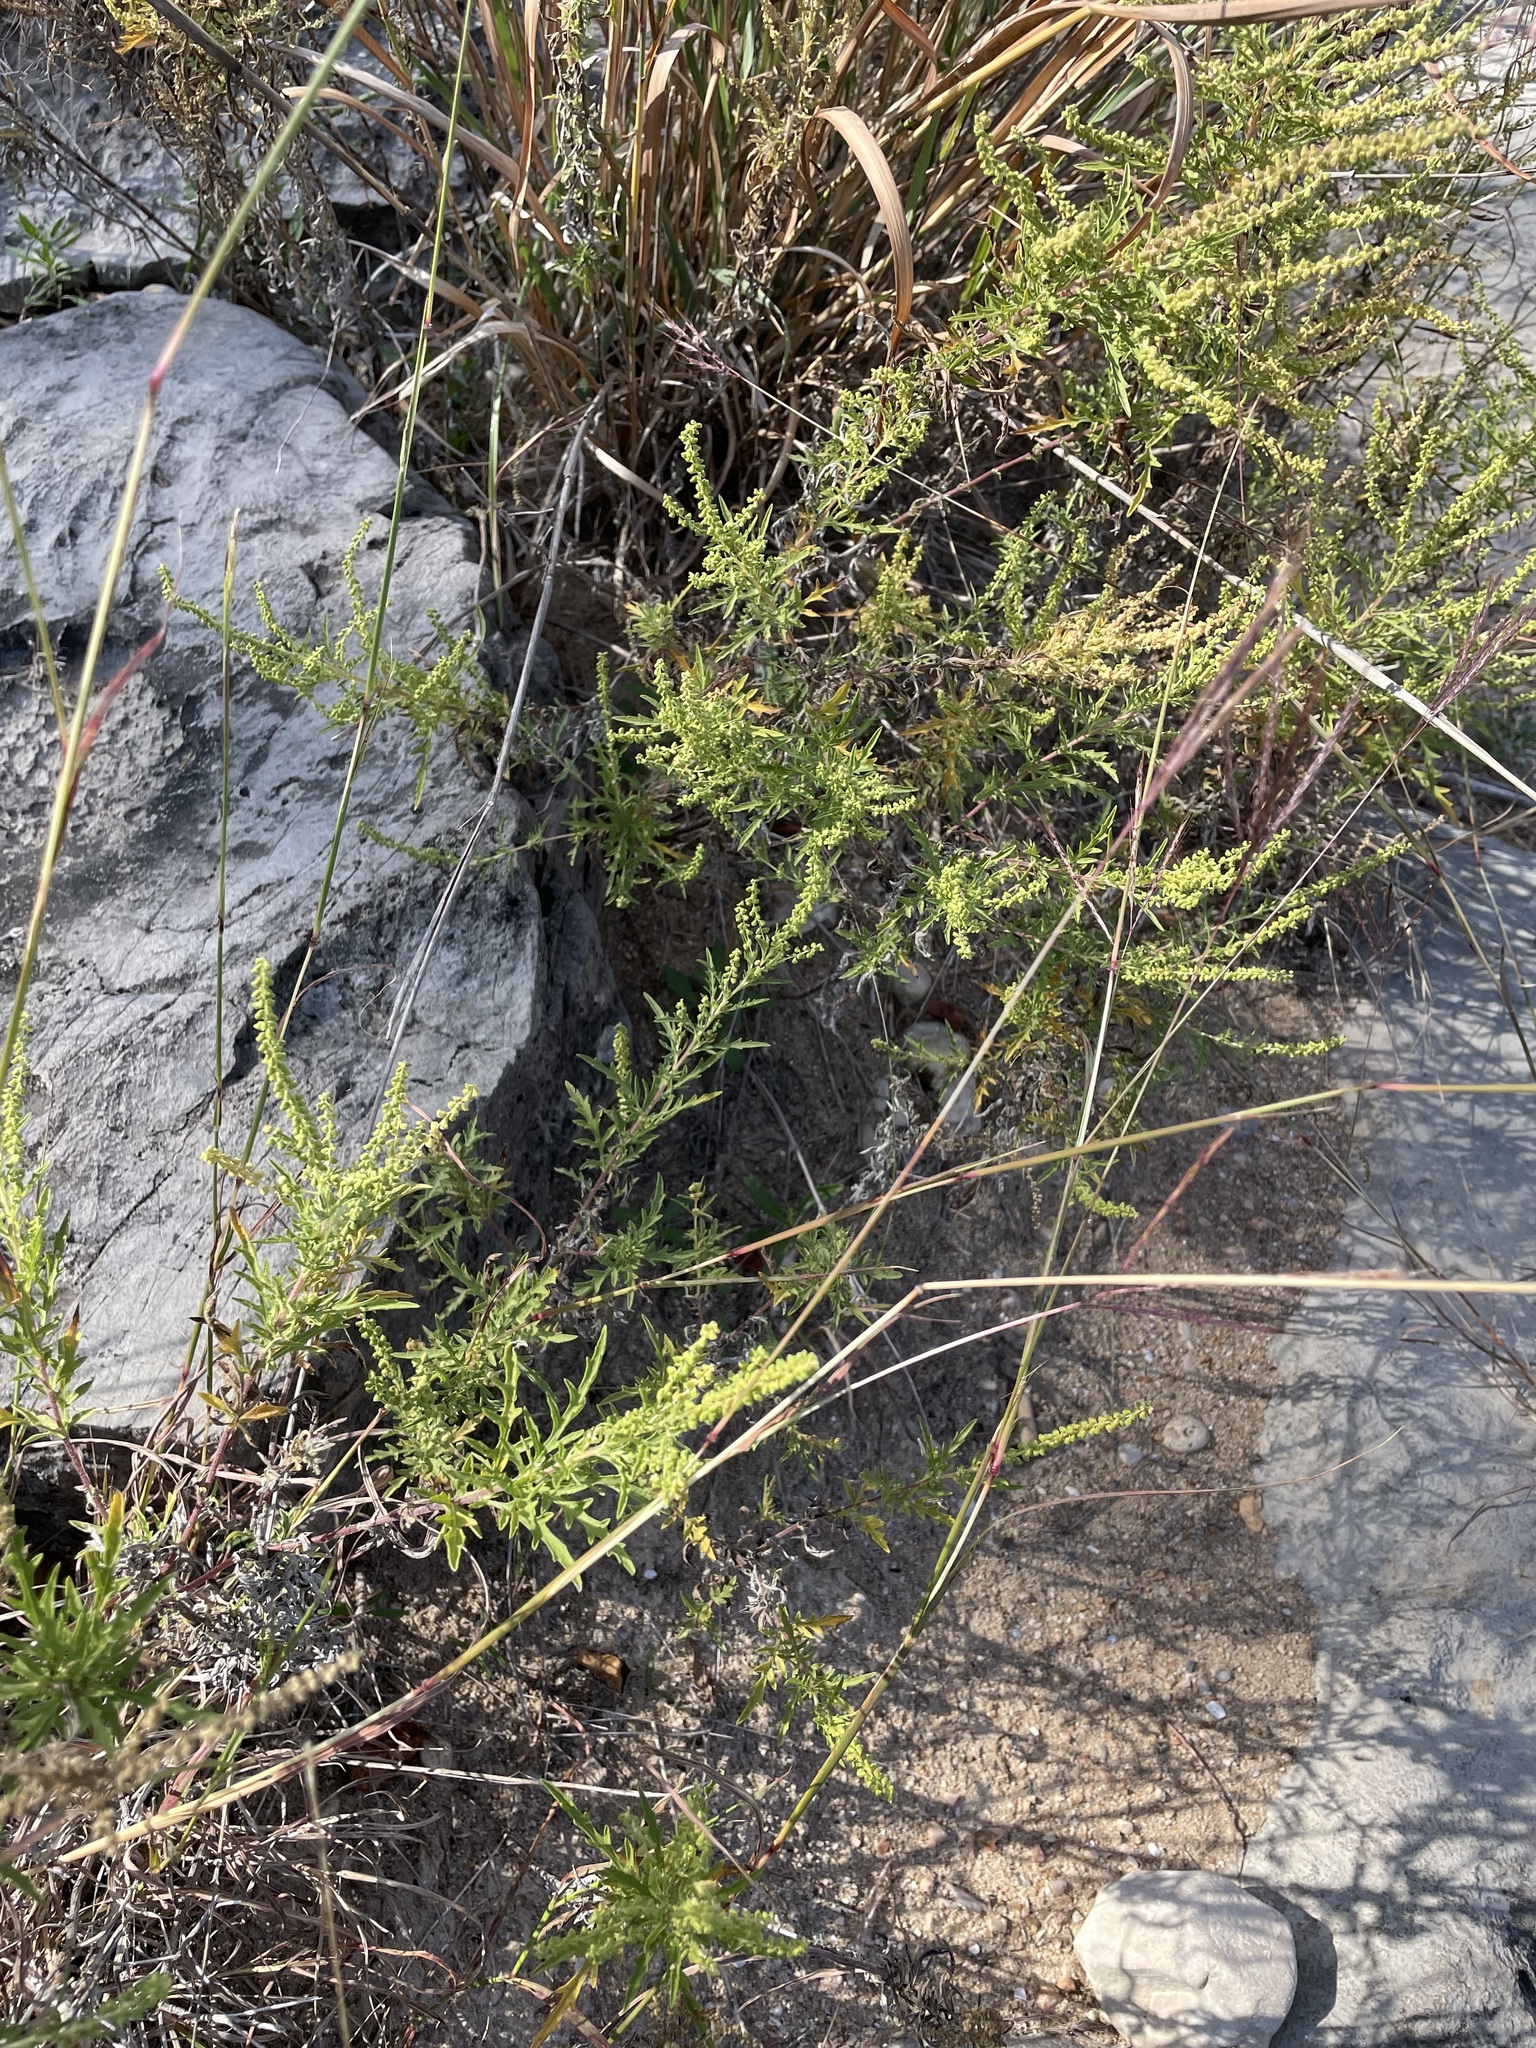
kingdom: Plantae
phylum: Tracheophyta
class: Magnoliopsida
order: Asterales
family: Asteraceae
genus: Ambrosia
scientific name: Ambrosia psilostachya
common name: Perennial ragweed
